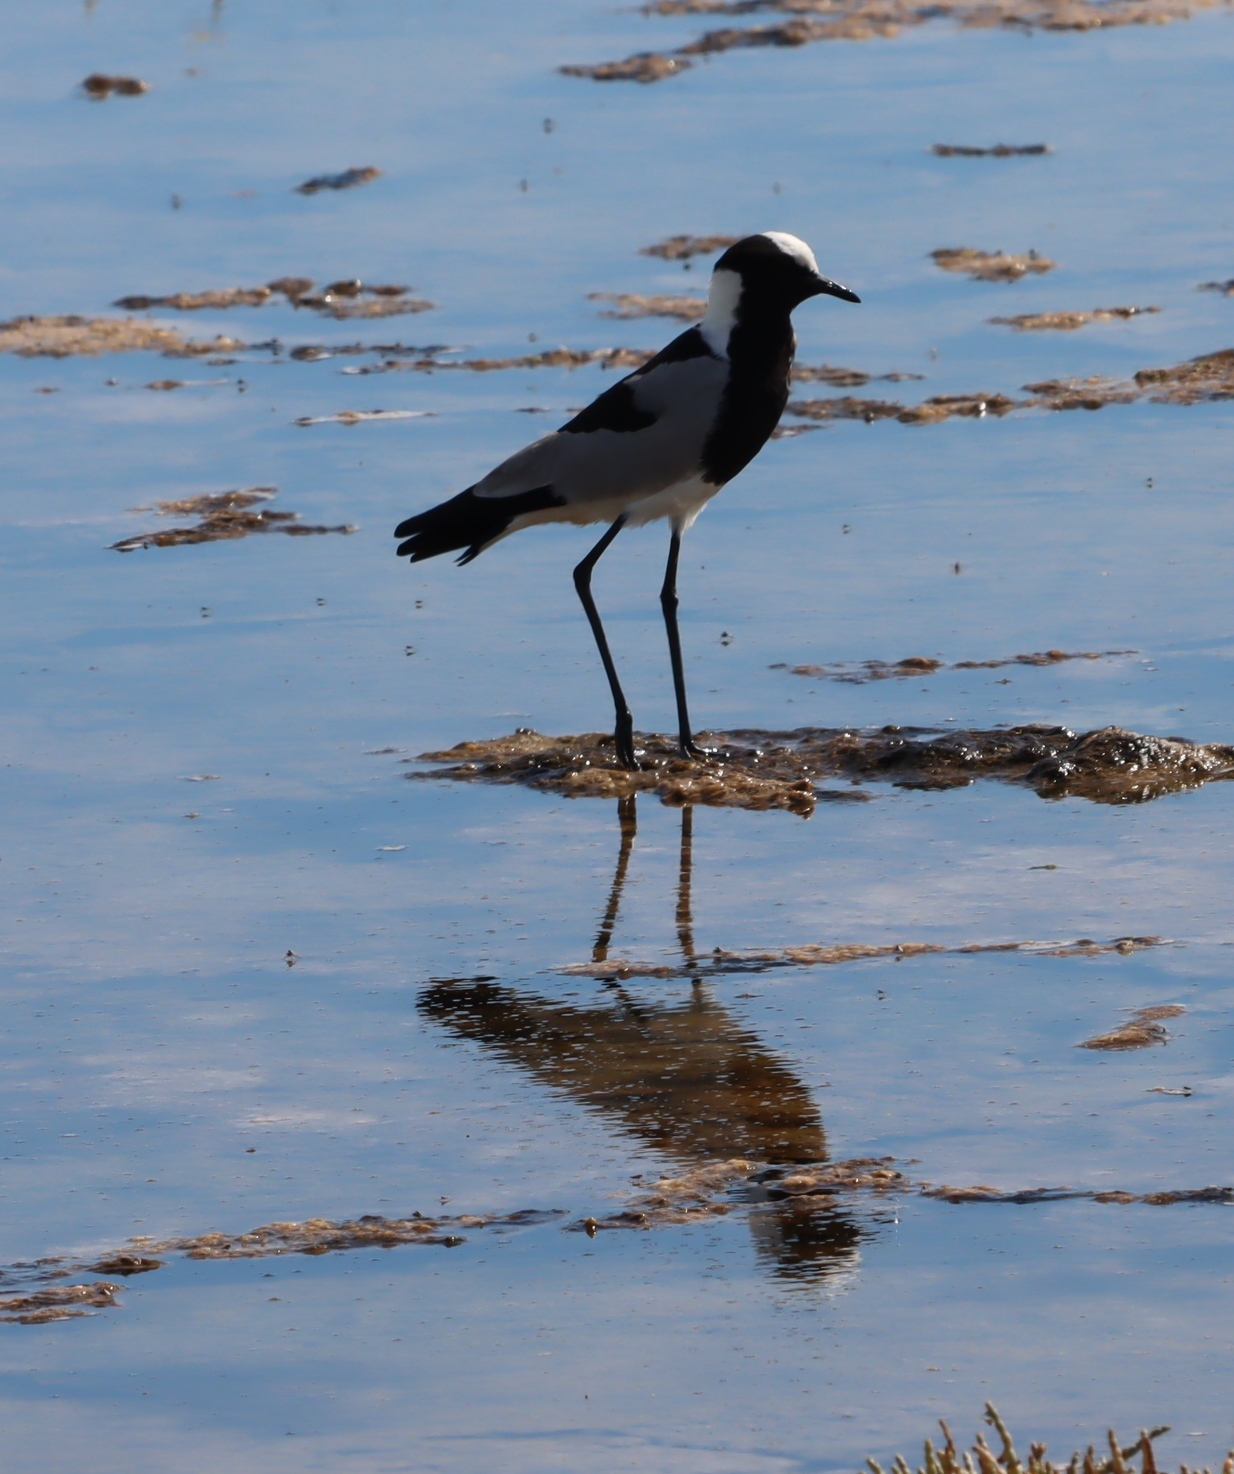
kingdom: Animalia
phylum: Chordata
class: Aves
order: Charadriiformes
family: Charadriidae
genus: Vanellus
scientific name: Vanellus armatus
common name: Blacksmith lapwing
